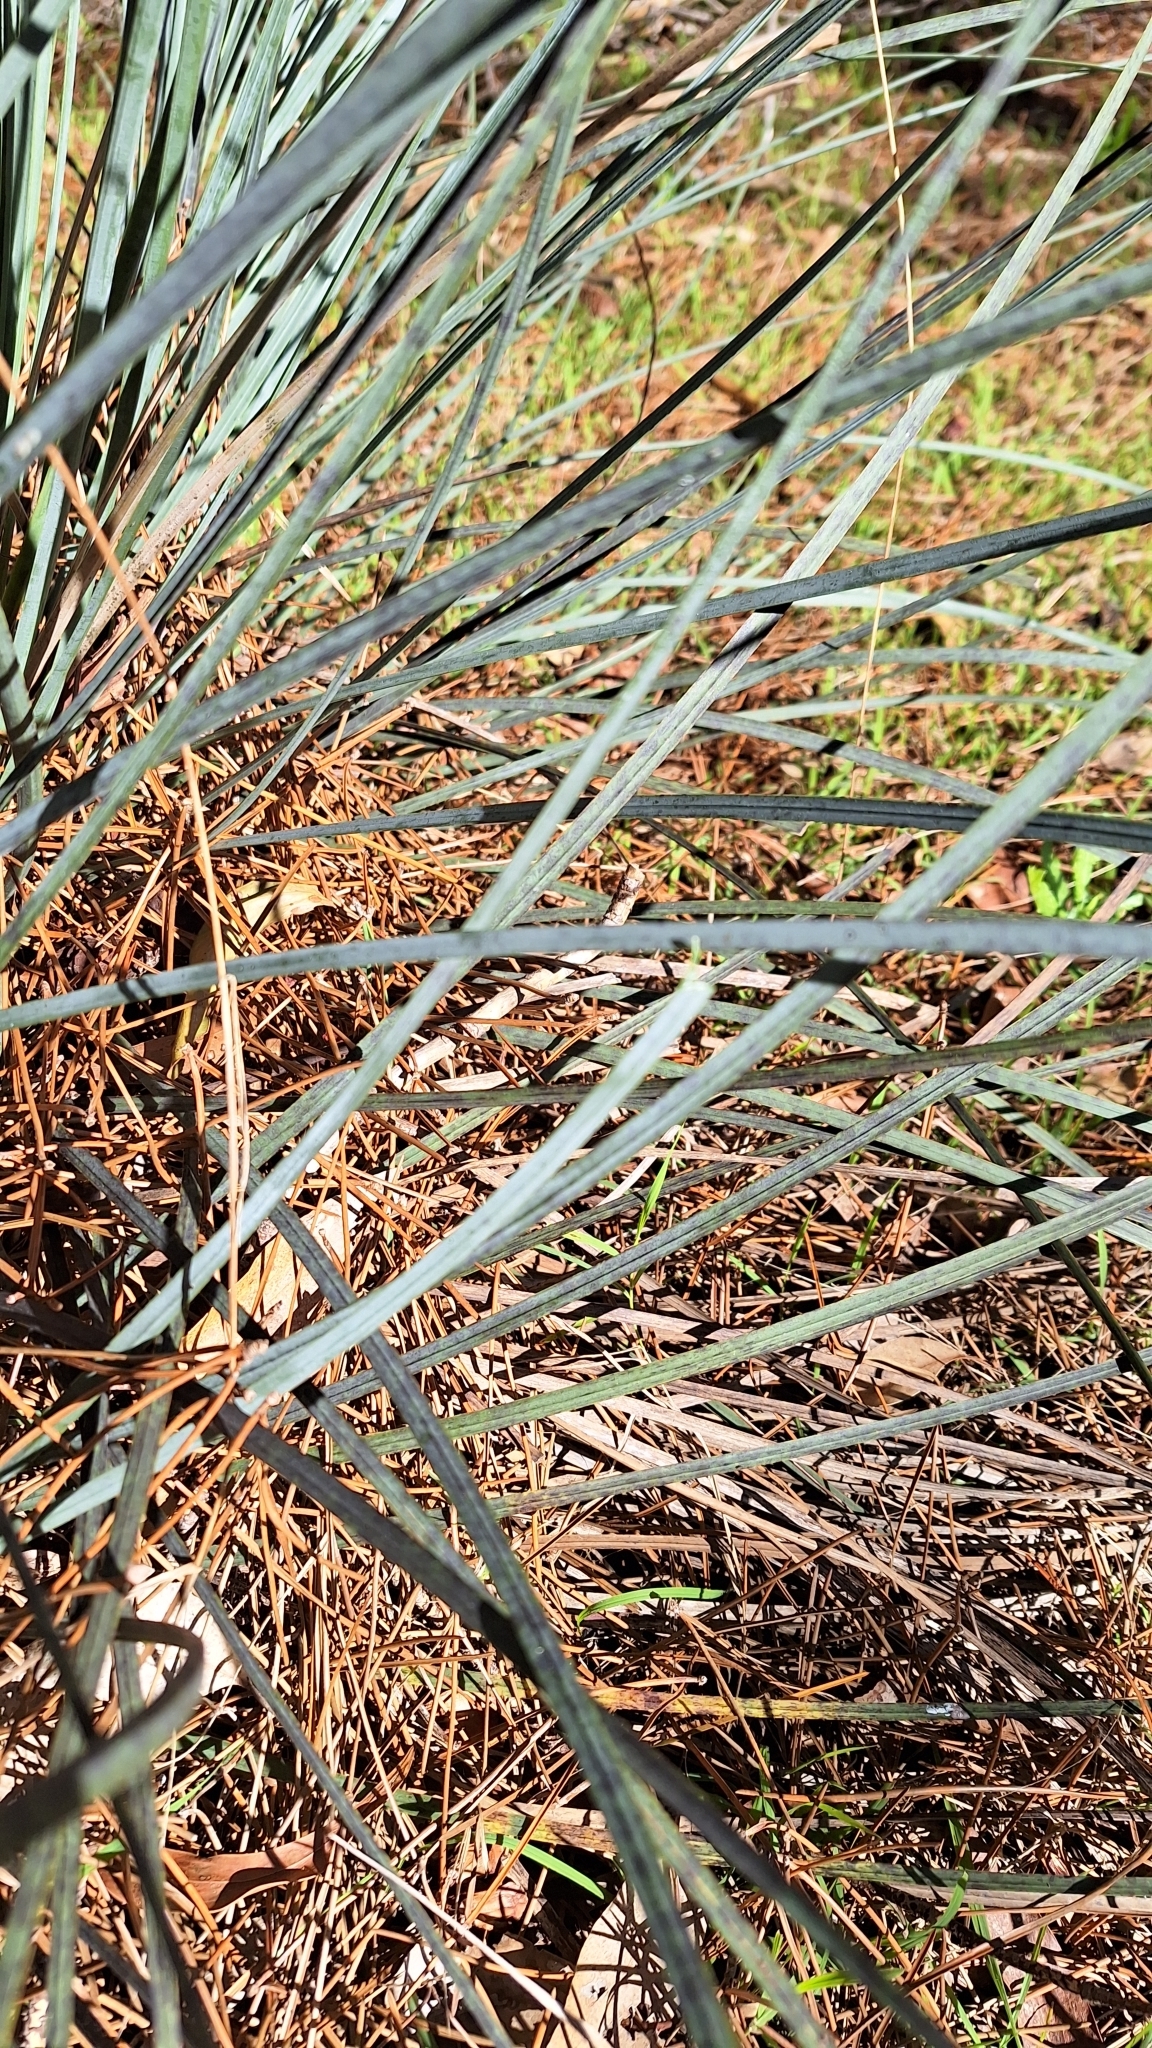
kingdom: Plantae
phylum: Tracheophyta
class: Liliopsida
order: Asparagales
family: Asphodelaceae
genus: Xanthorrhoea
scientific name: Xanthorrhoea semiplana
